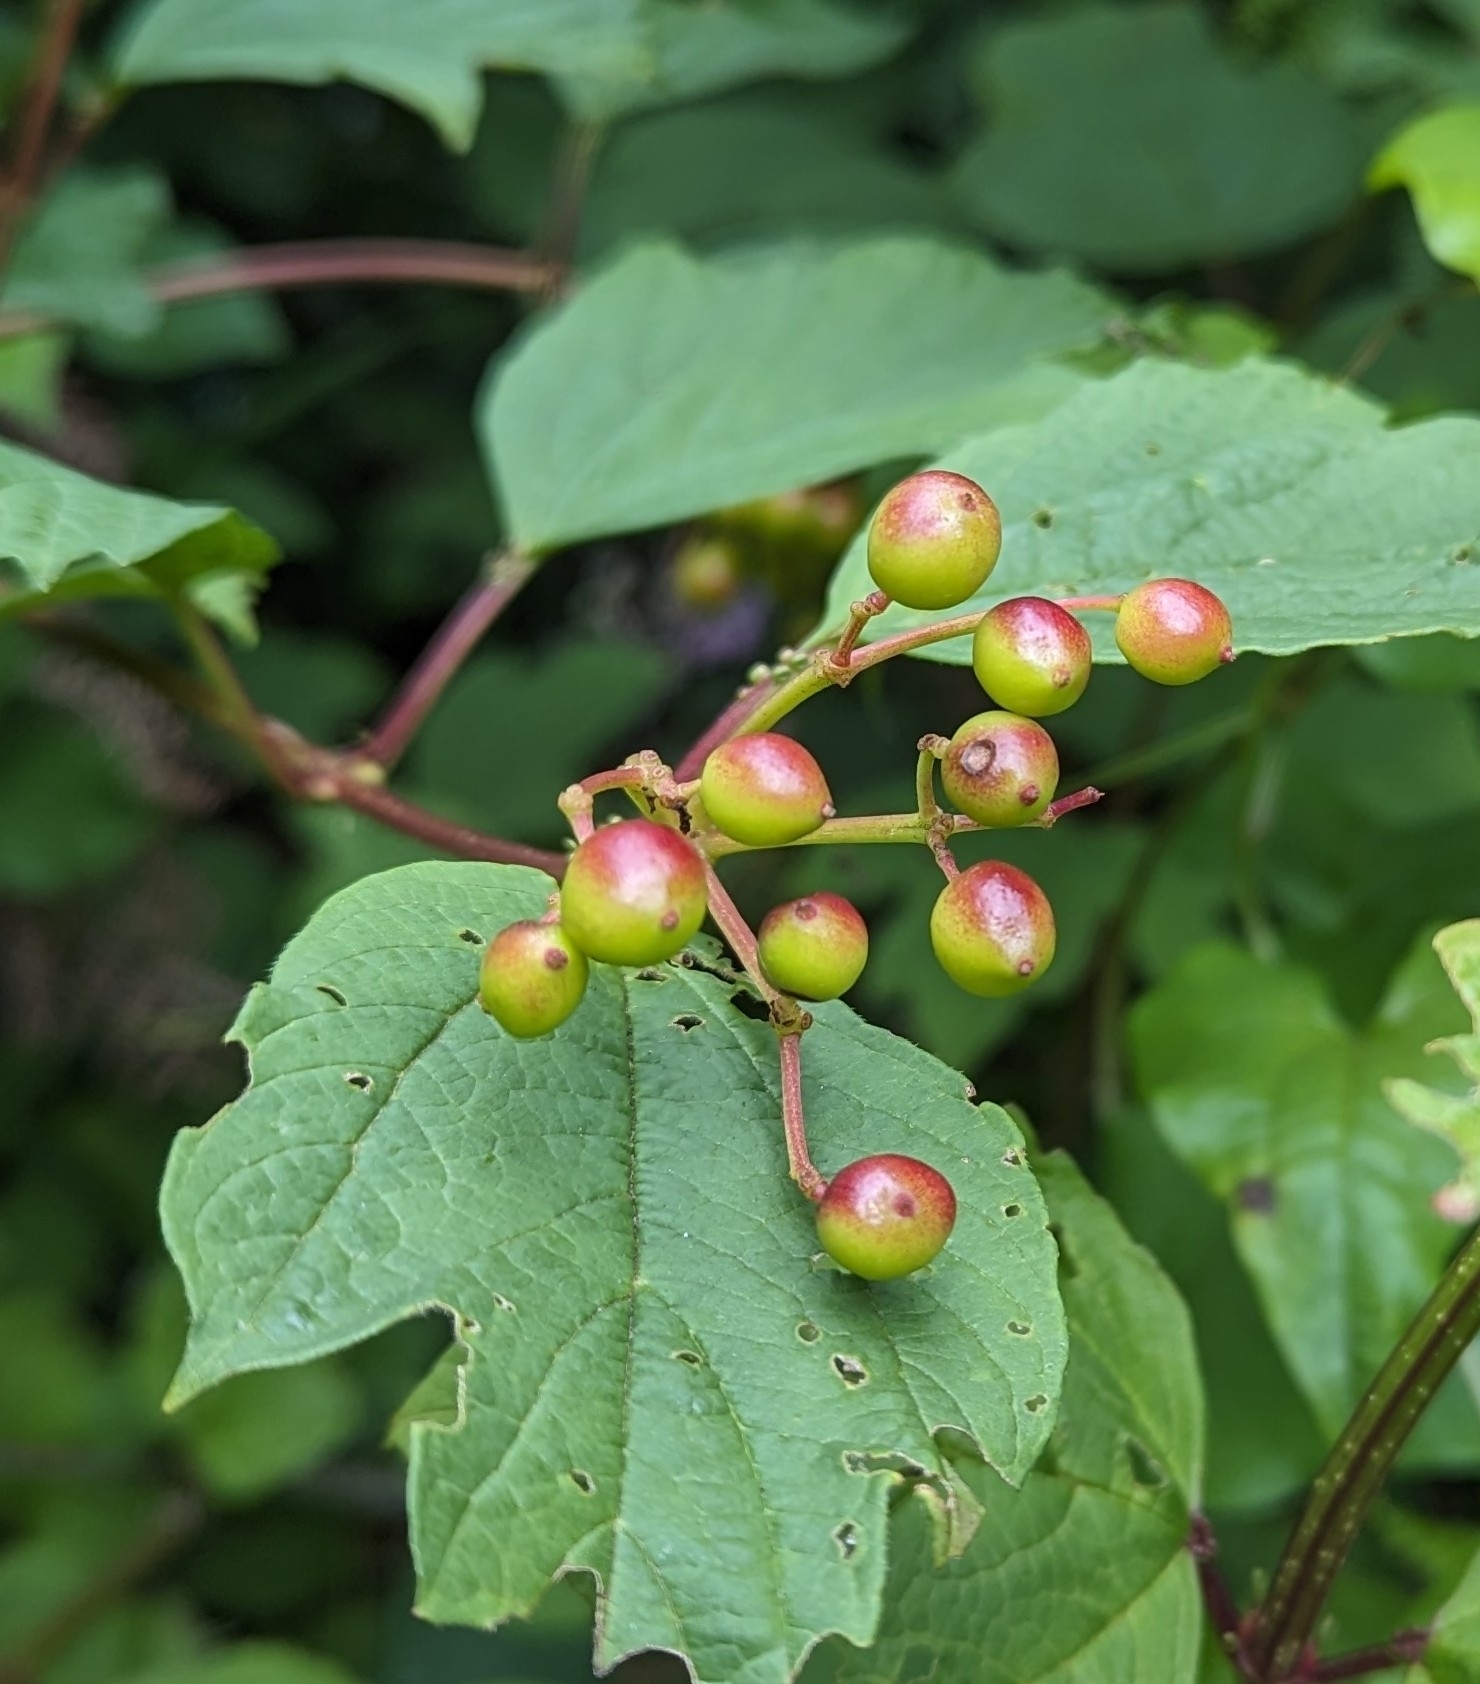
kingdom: Plantae
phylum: Tracheophyta
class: Magnoliopsida
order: Dipsacales
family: Viburnaceae
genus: Viburnum
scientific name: Viburnum opulus
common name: Guelder-rose
